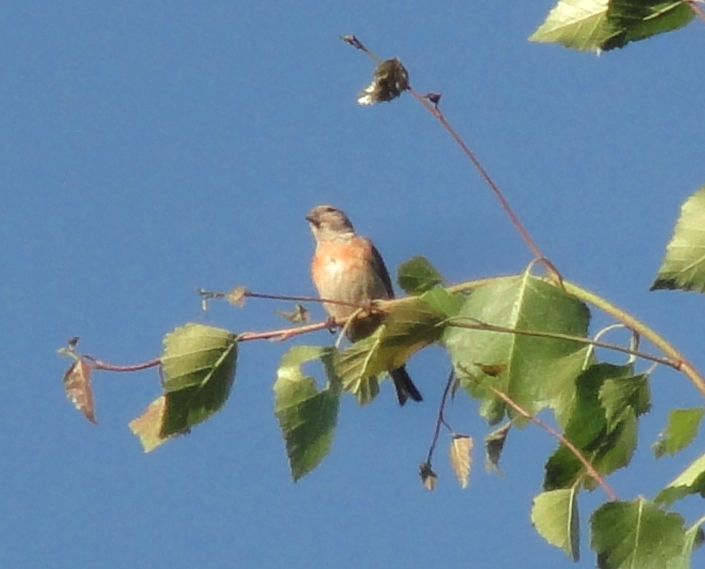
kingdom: Animalia
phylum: Chordata
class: Aves
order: Passeriformes
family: Fringillidae
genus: Linaria
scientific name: Linaria cannabina
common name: Common linnet
